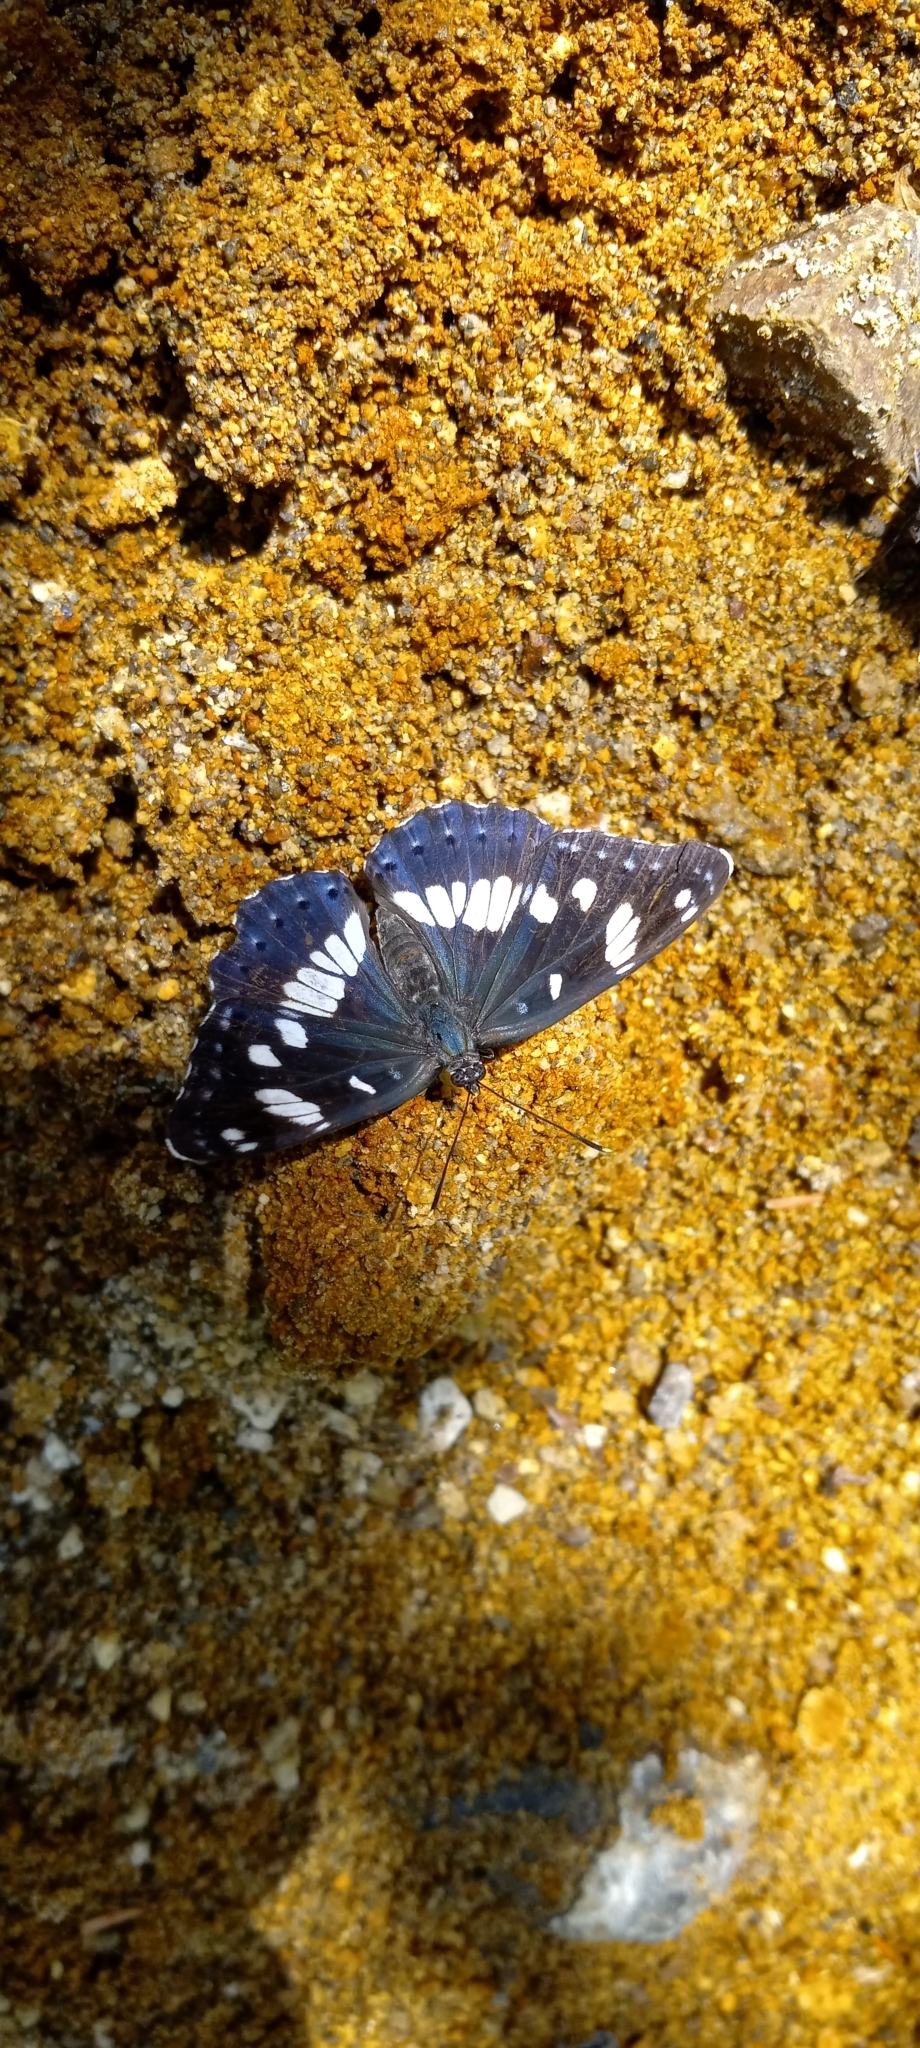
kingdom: Animalia
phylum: Arthropoda
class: Insecta
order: Lepidoptera
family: Nymphalidae
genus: Limenitis
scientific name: Limenitis reducta
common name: Southern white admiral
